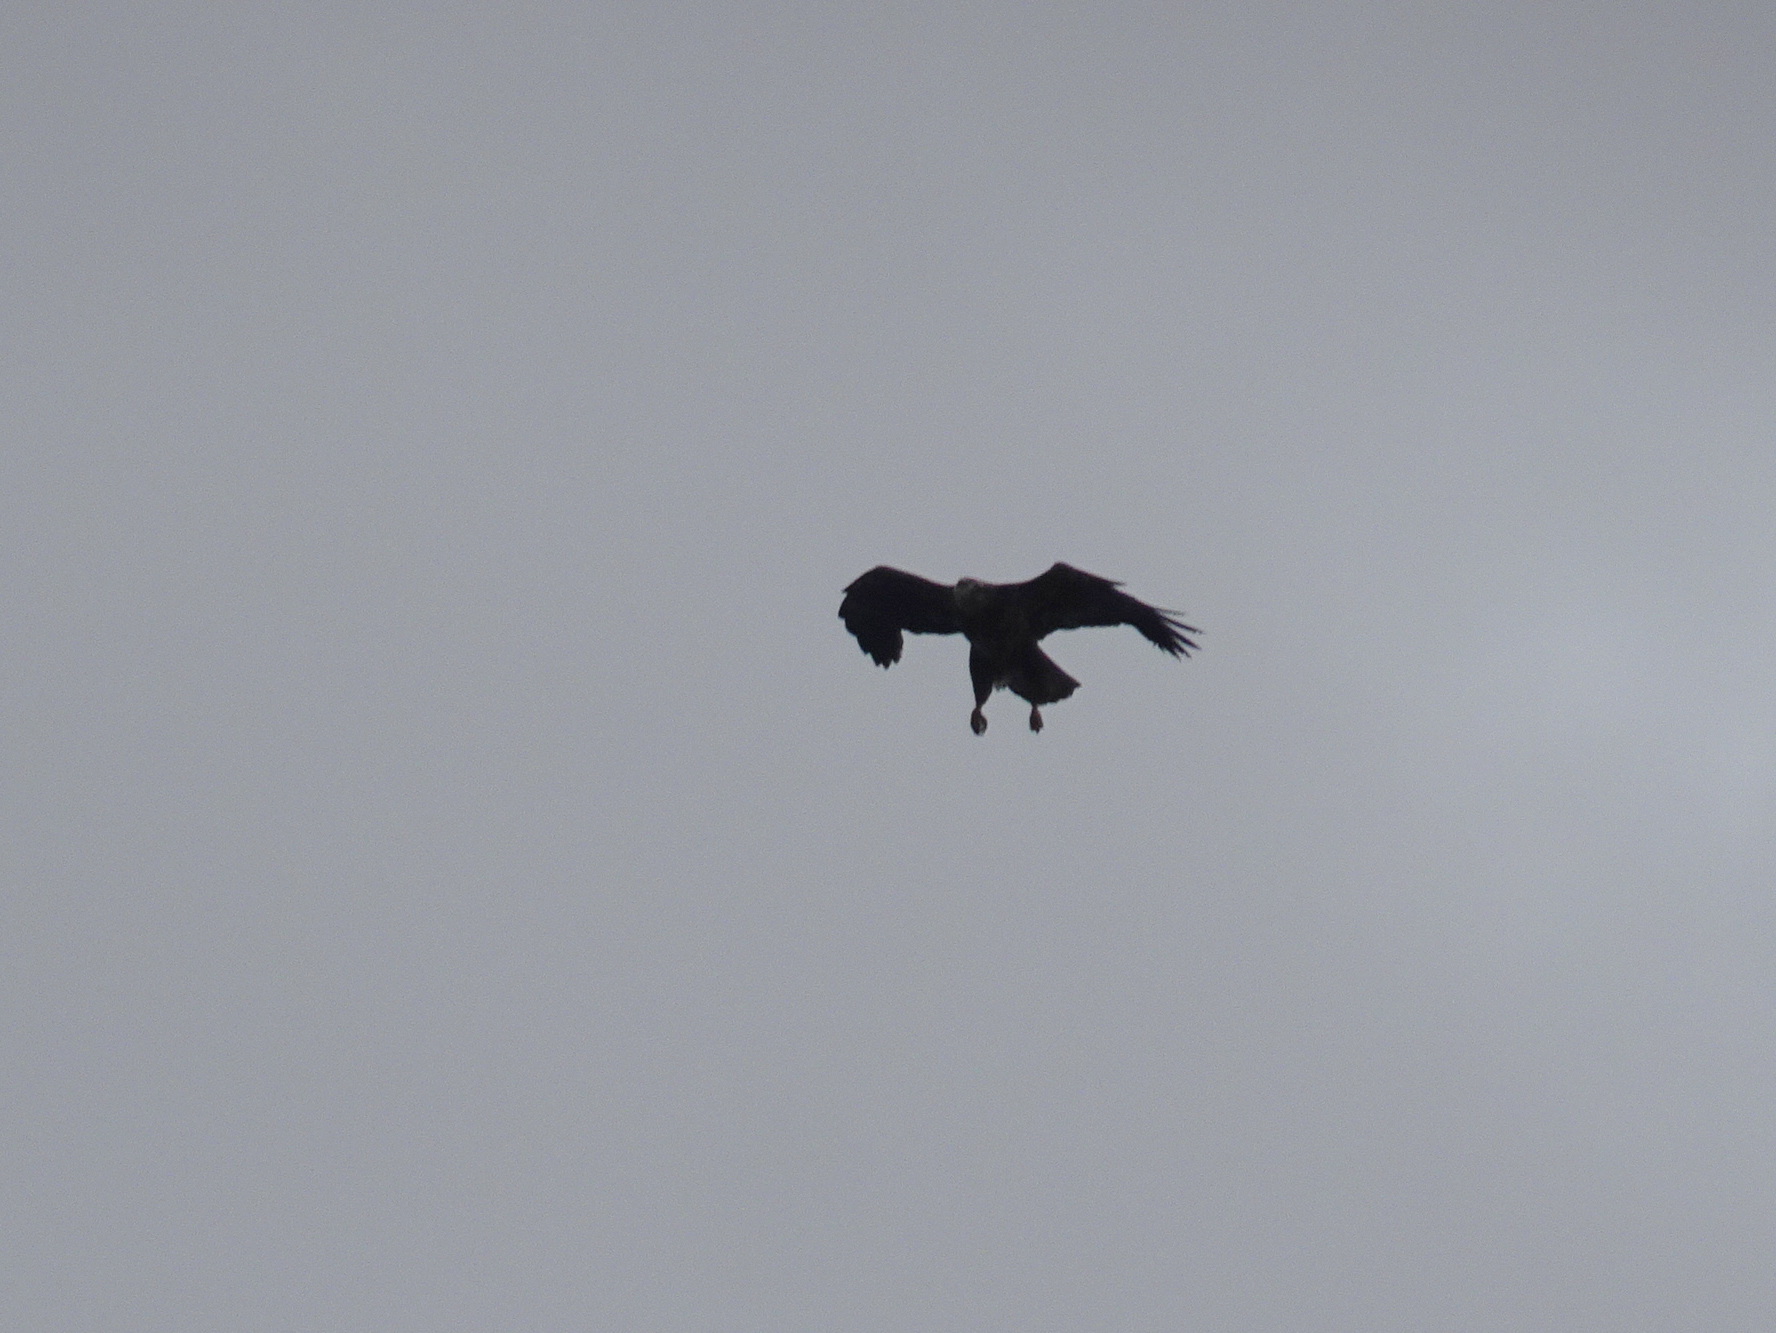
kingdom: Animalia
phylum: Chordata
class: Aves
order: Accipitriformes
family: Accipitridae
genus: Haliaeetus
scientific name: Haliaeetus leucocephalus
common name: Bald eagle
